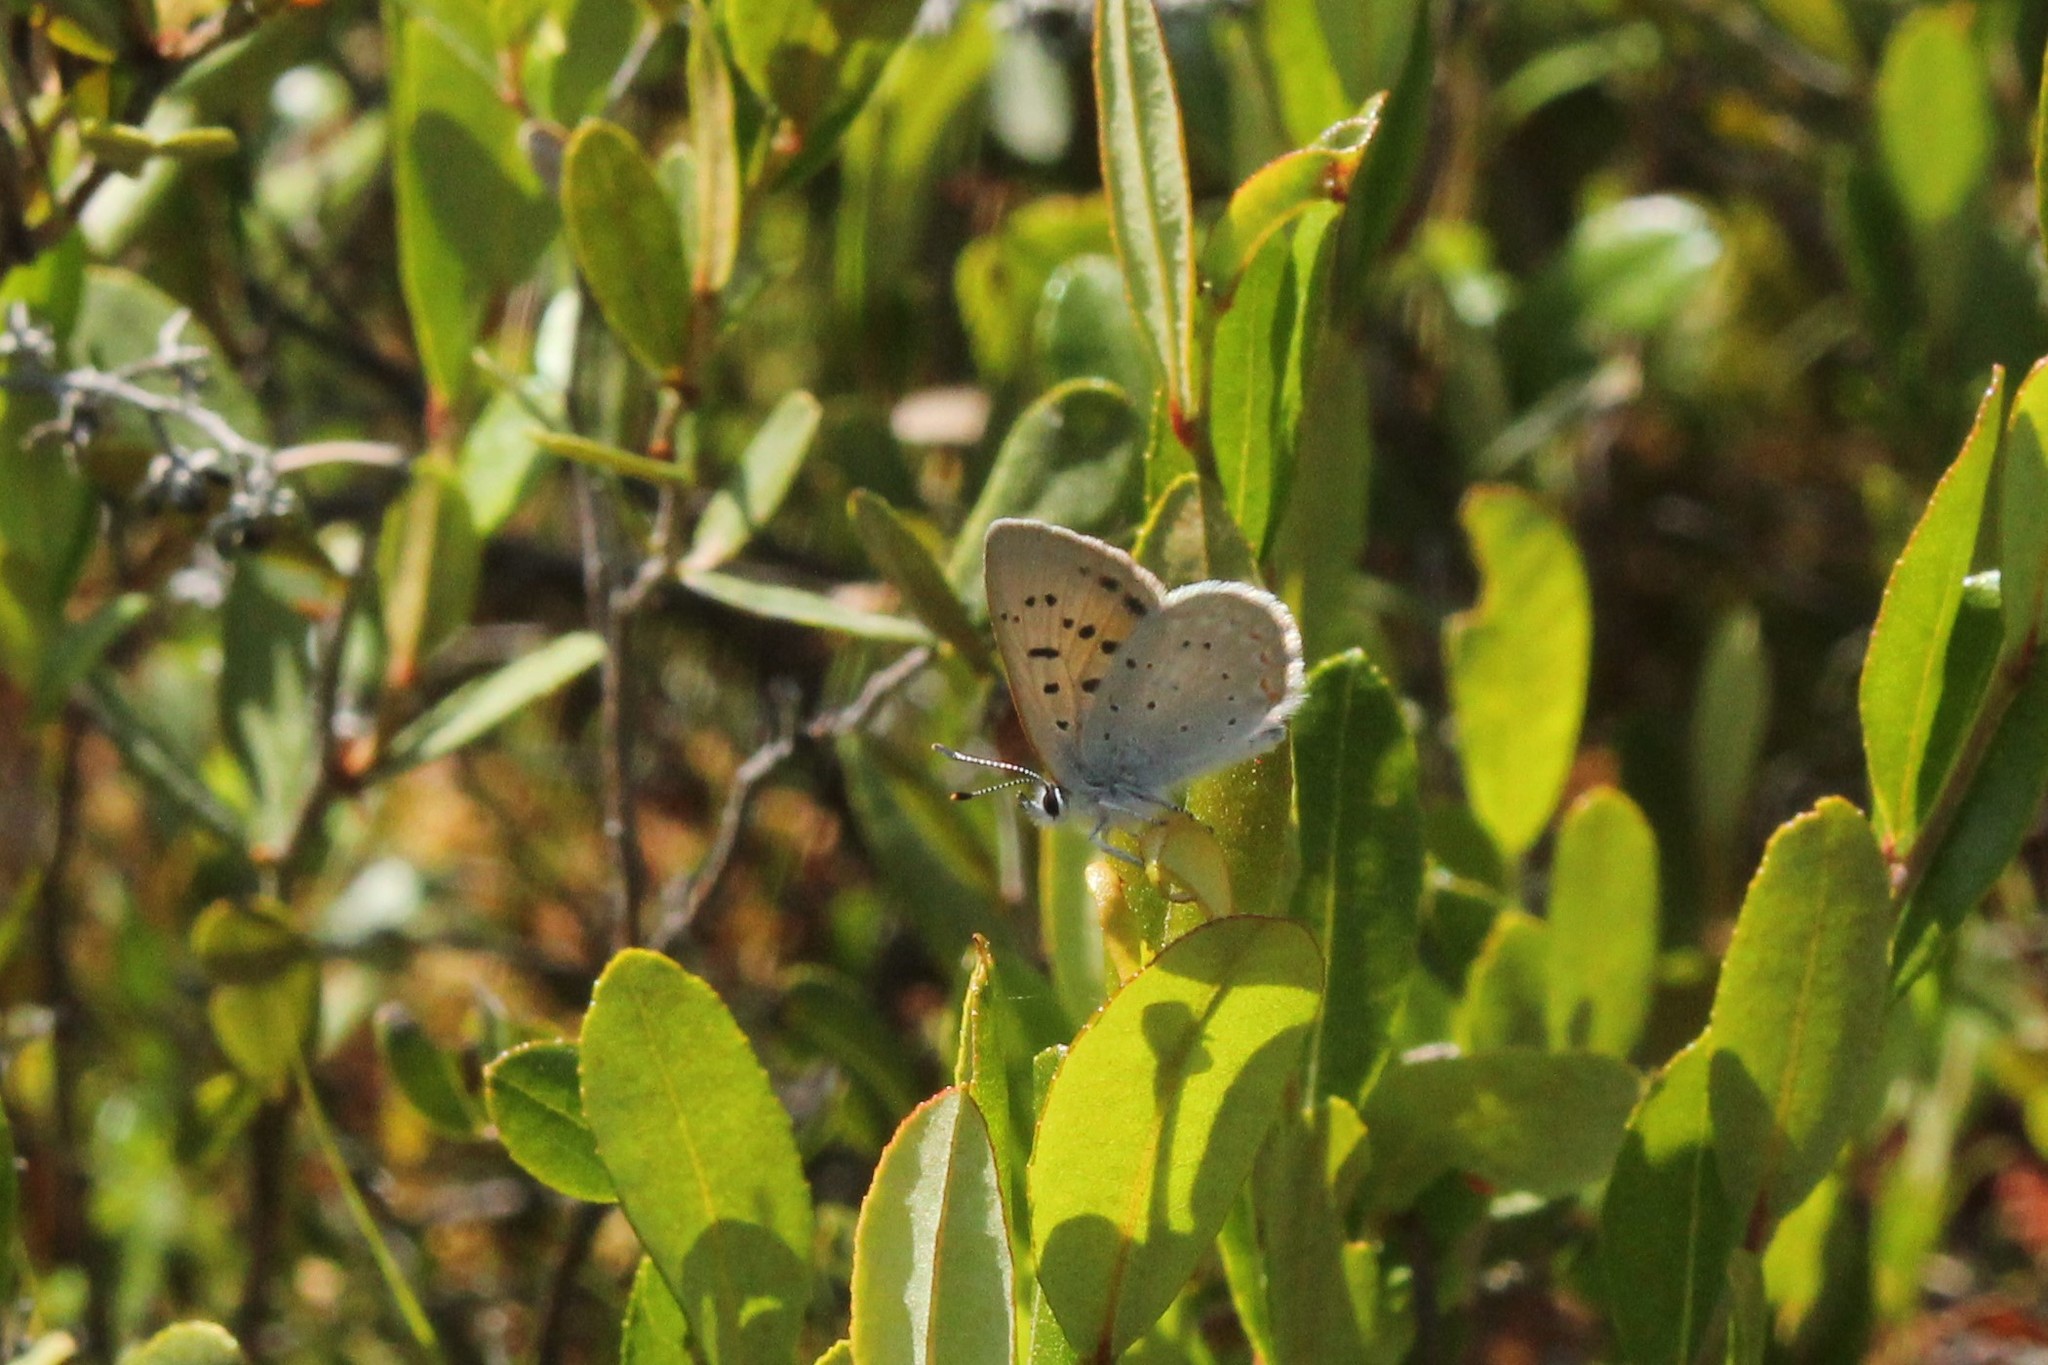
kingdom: Animalia
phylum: Arthropoda
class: Insecta
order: Lepidoptera
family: Lycaenidae
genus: Tharsalea
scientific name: Tharsalea epixanthe
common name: Bog copper
